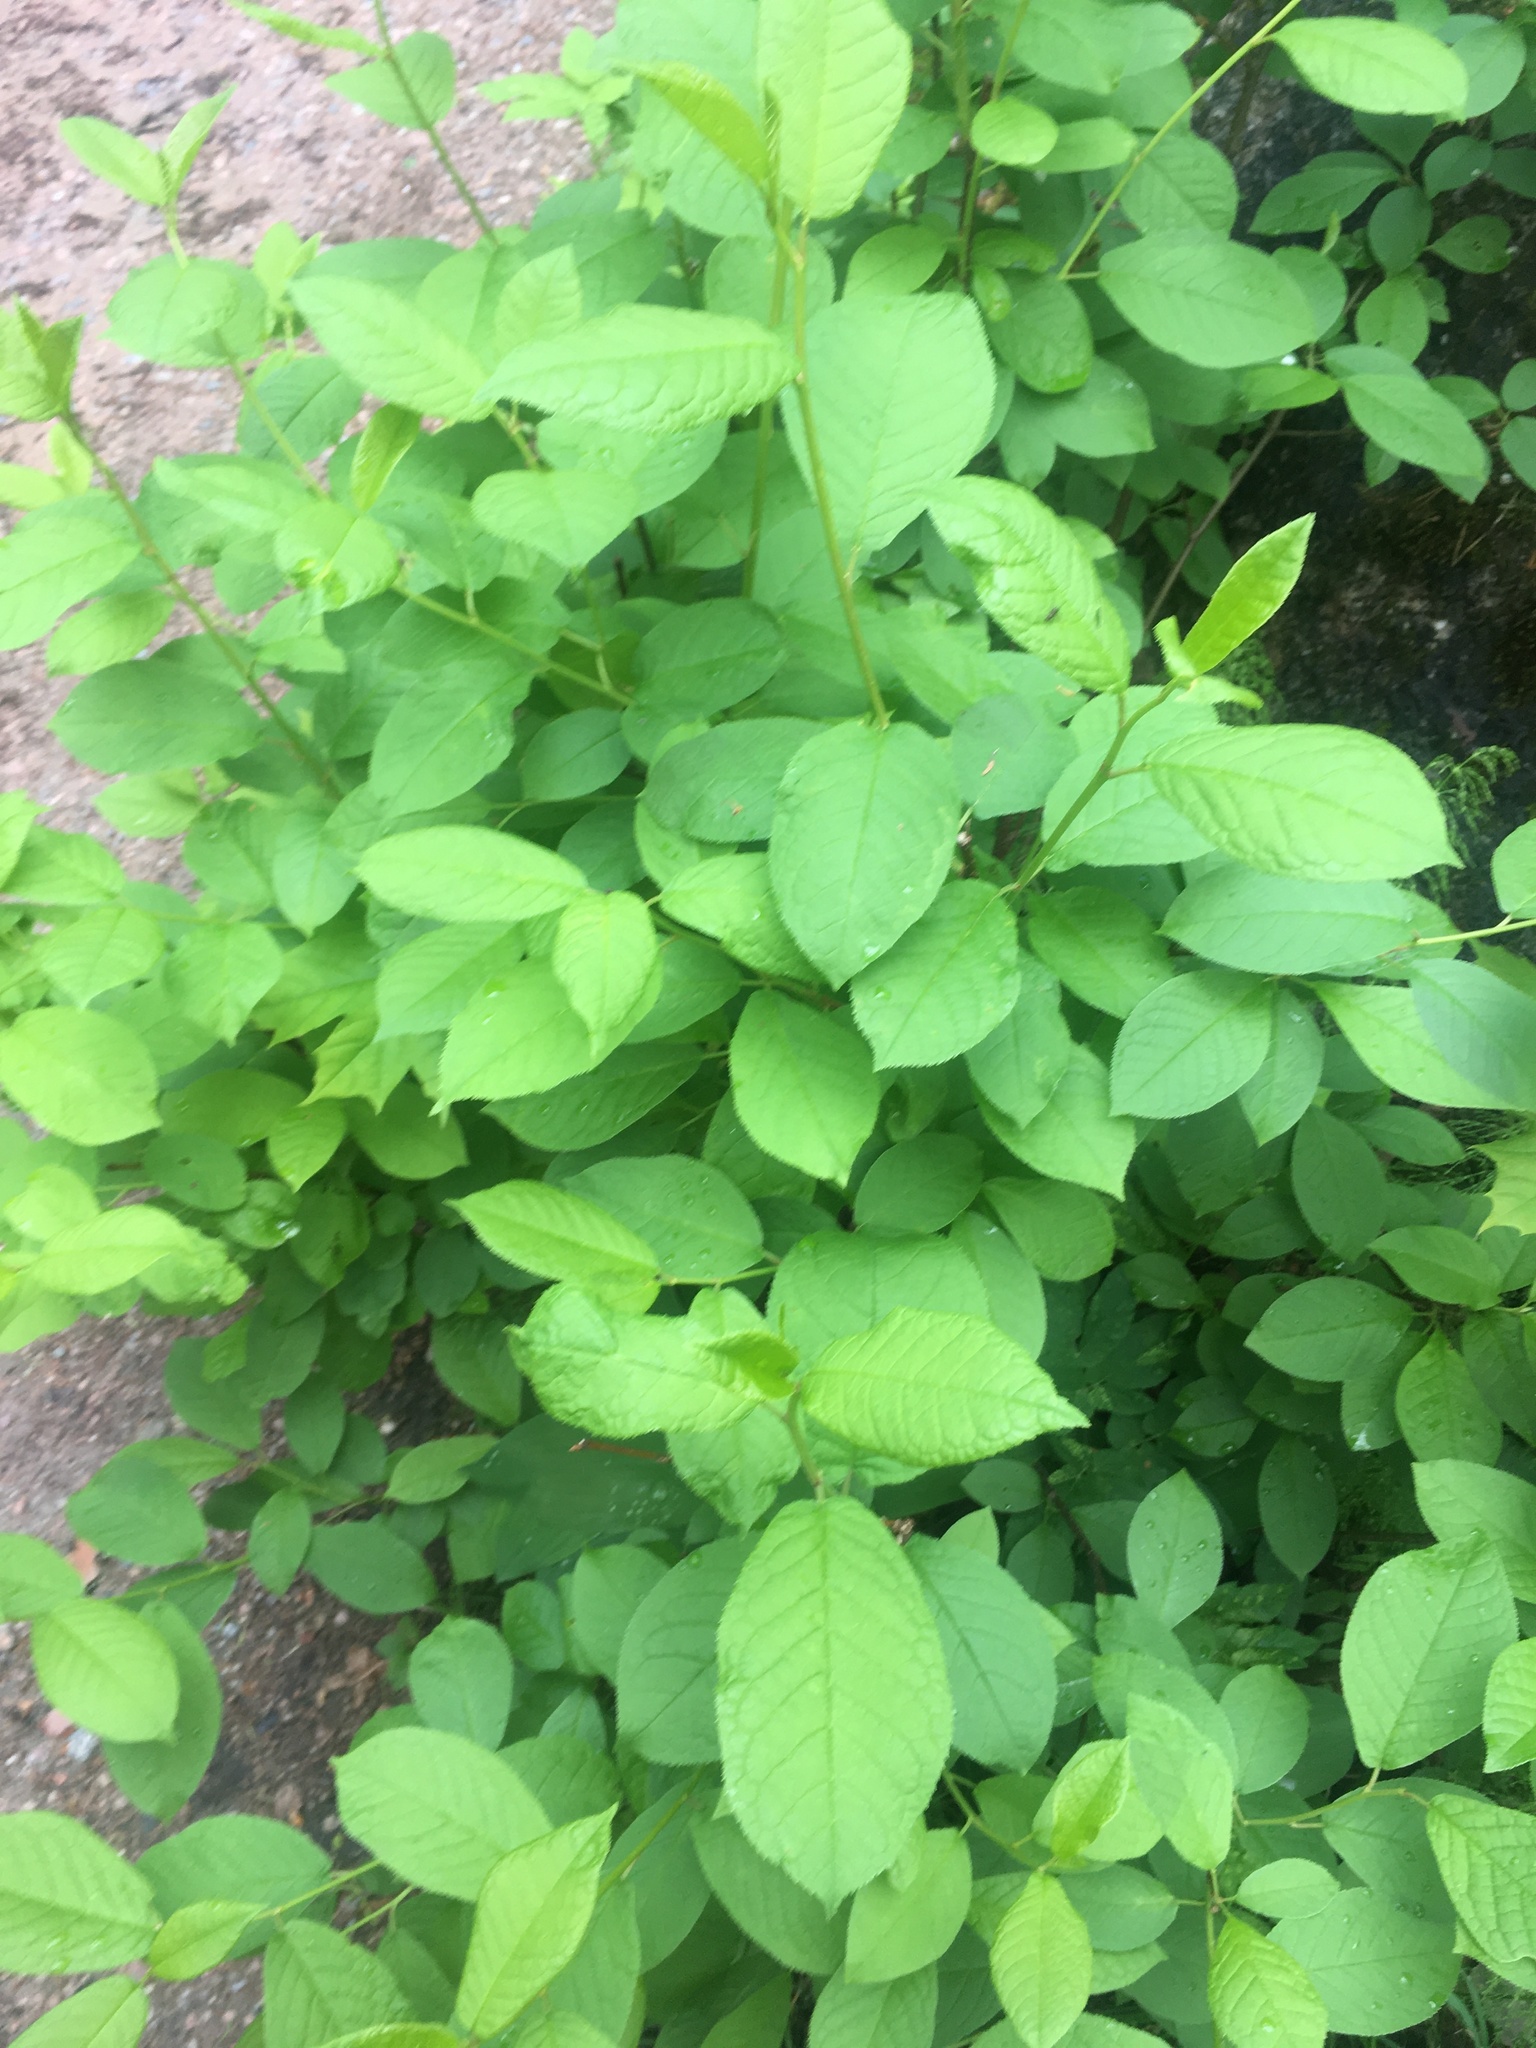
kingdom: Plantae
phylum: Tracheophyta
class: Magnoliopsida
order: Rosales
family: Rosaceae
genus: Prunus
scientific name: Prunus padus
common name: Bird cherry
